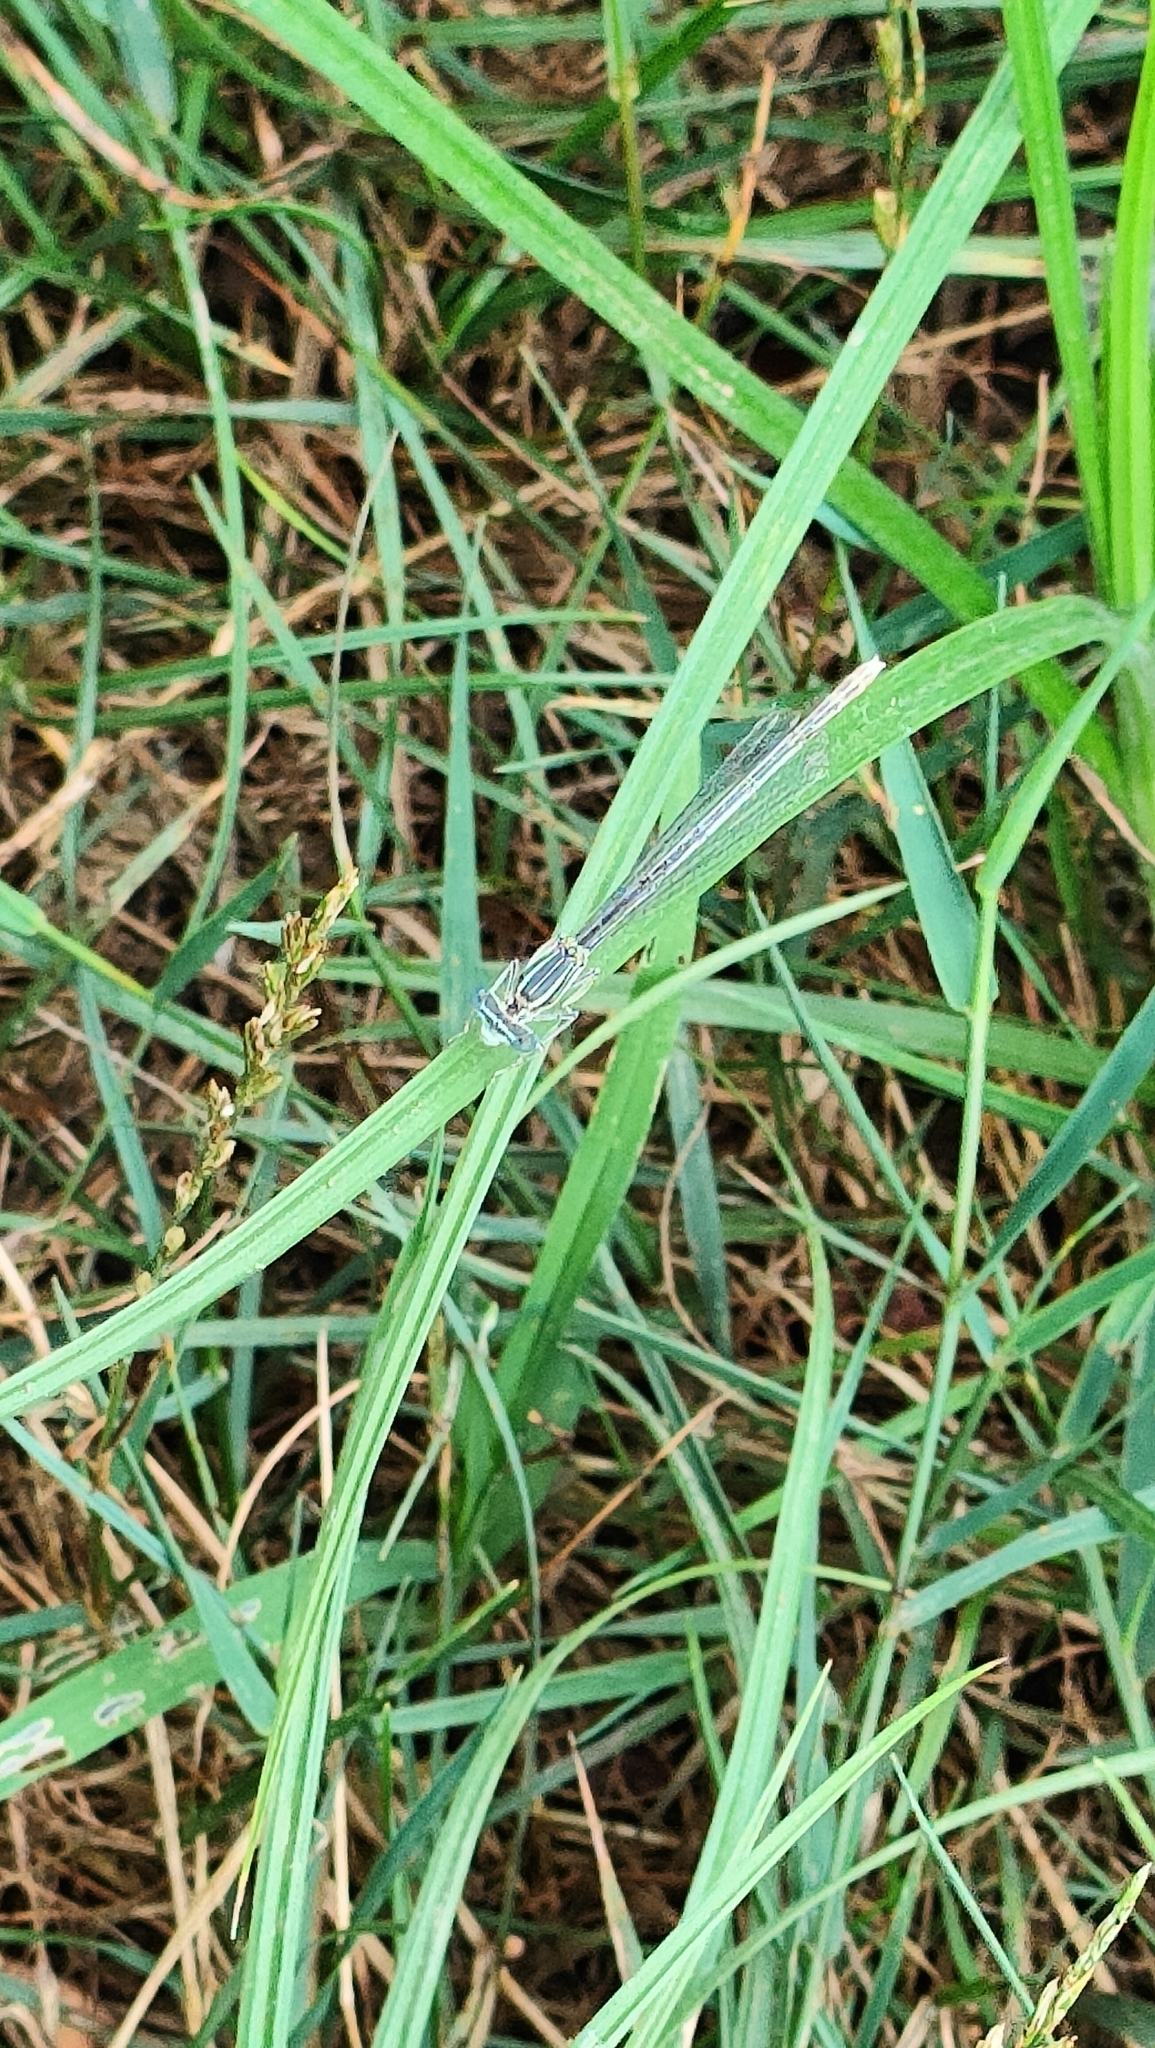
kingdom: Animalia
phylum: Arthropoda
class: Insecta
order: Odonata
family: Platycnemididae
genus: Platycnemis
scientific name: Platycnemis pennipes
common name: White-legged damselfly
